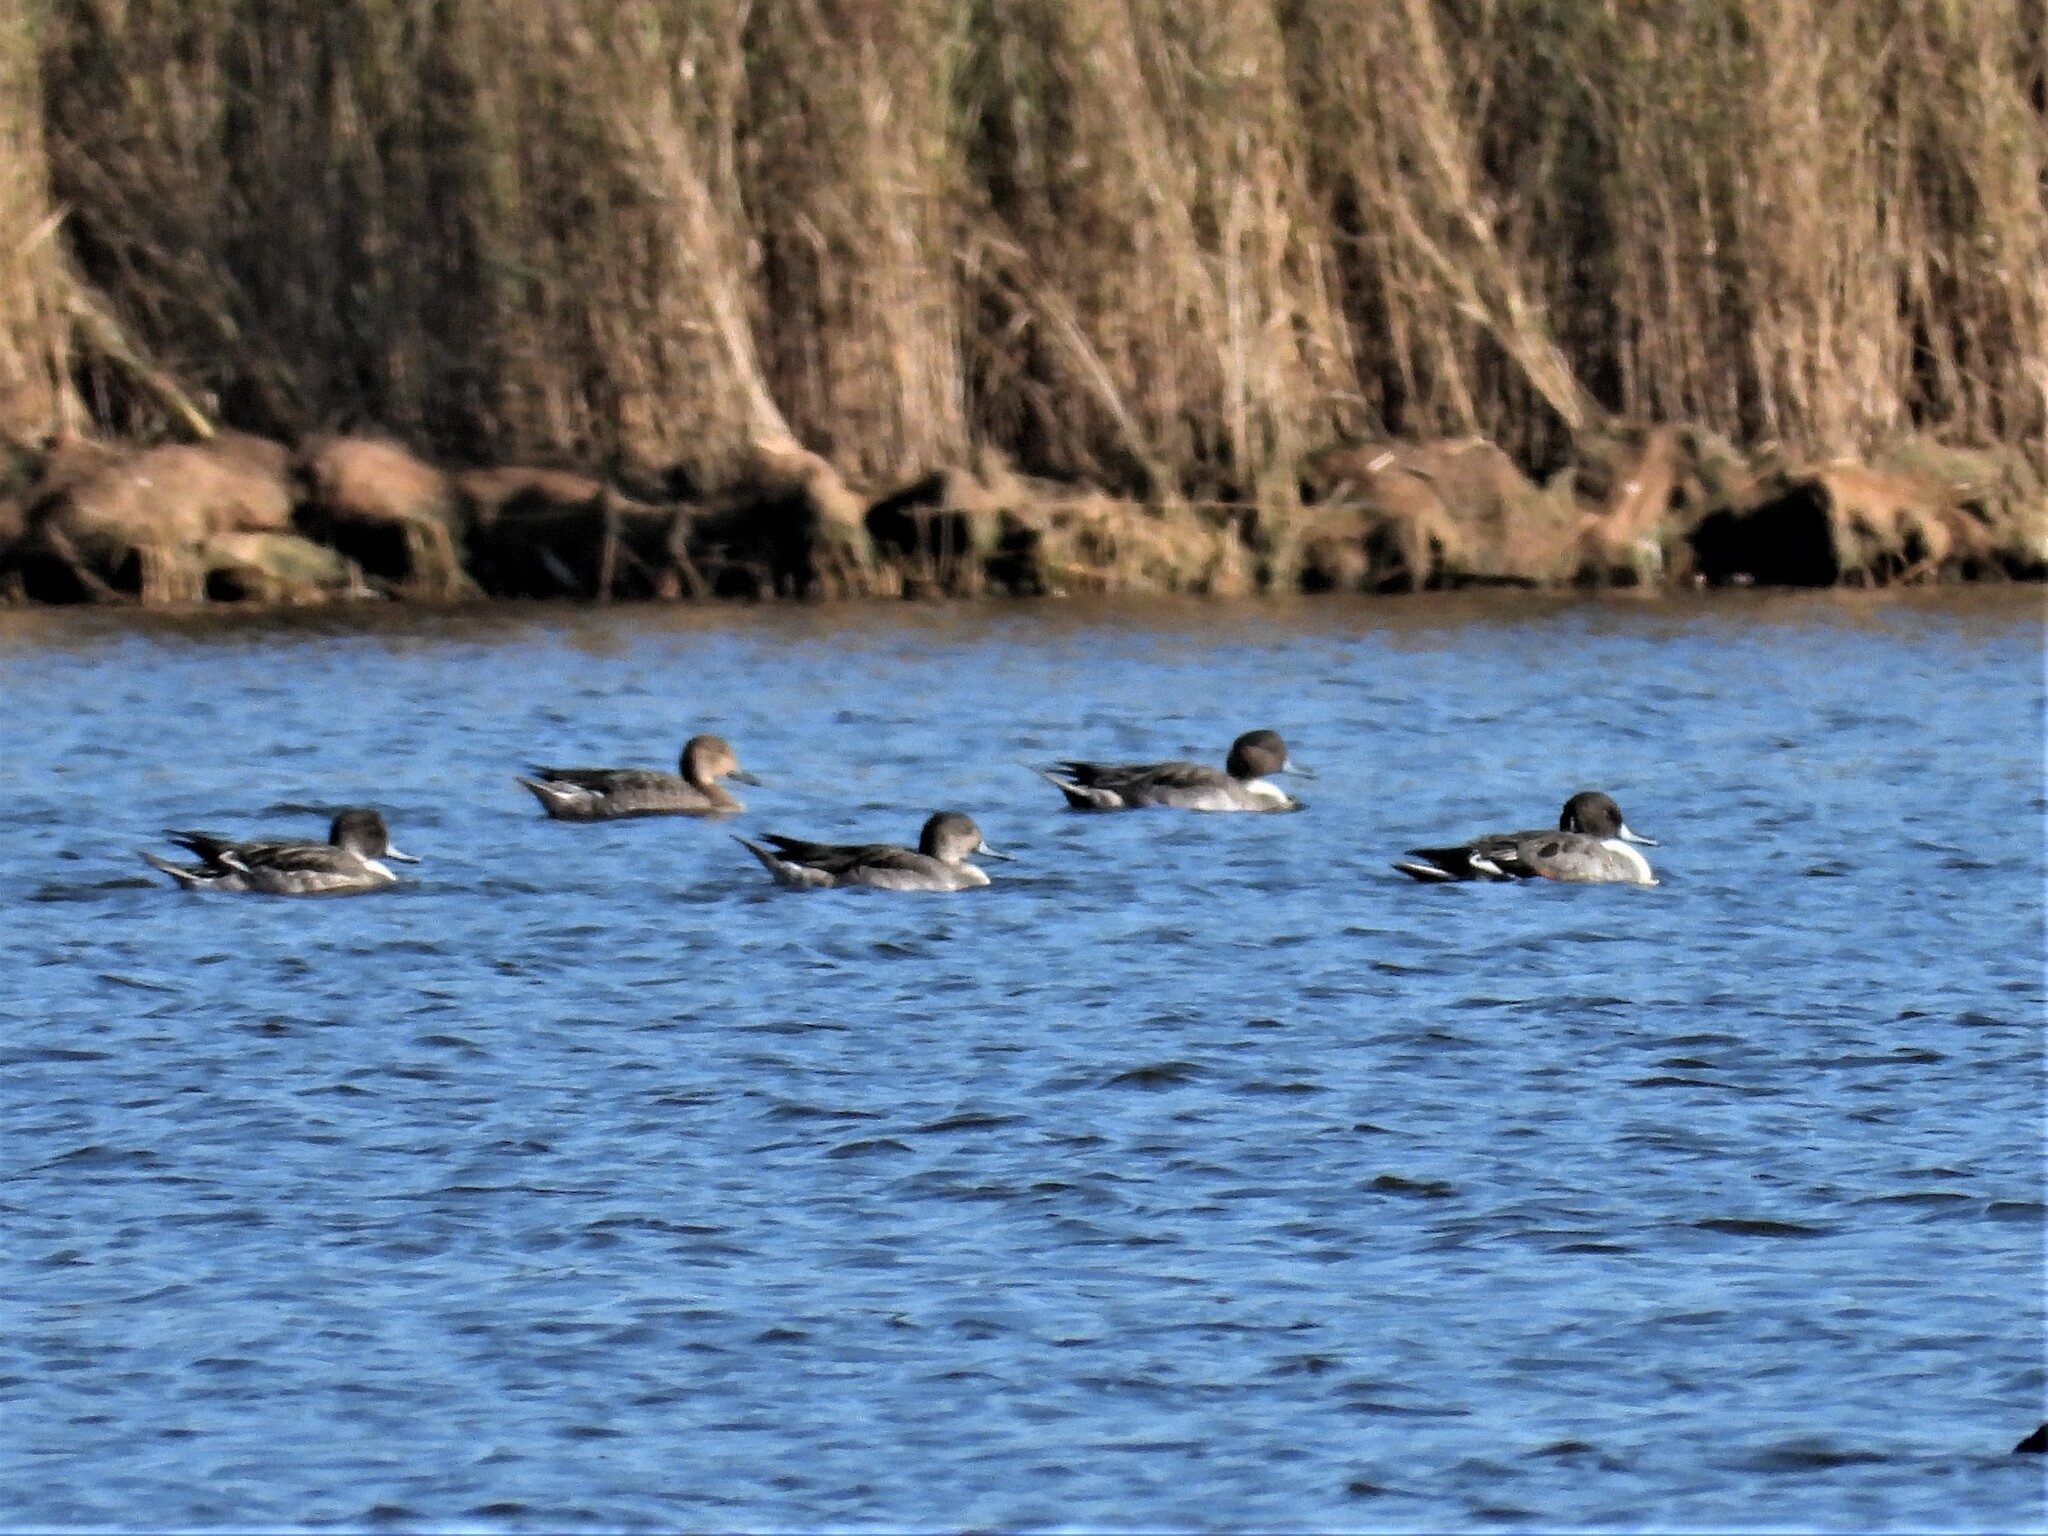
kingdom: Animalia
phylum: Chordata
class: Aves
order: Anseriformes
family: Anatidae
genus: Anas
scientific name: Anas acuta
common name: Northern pintail
